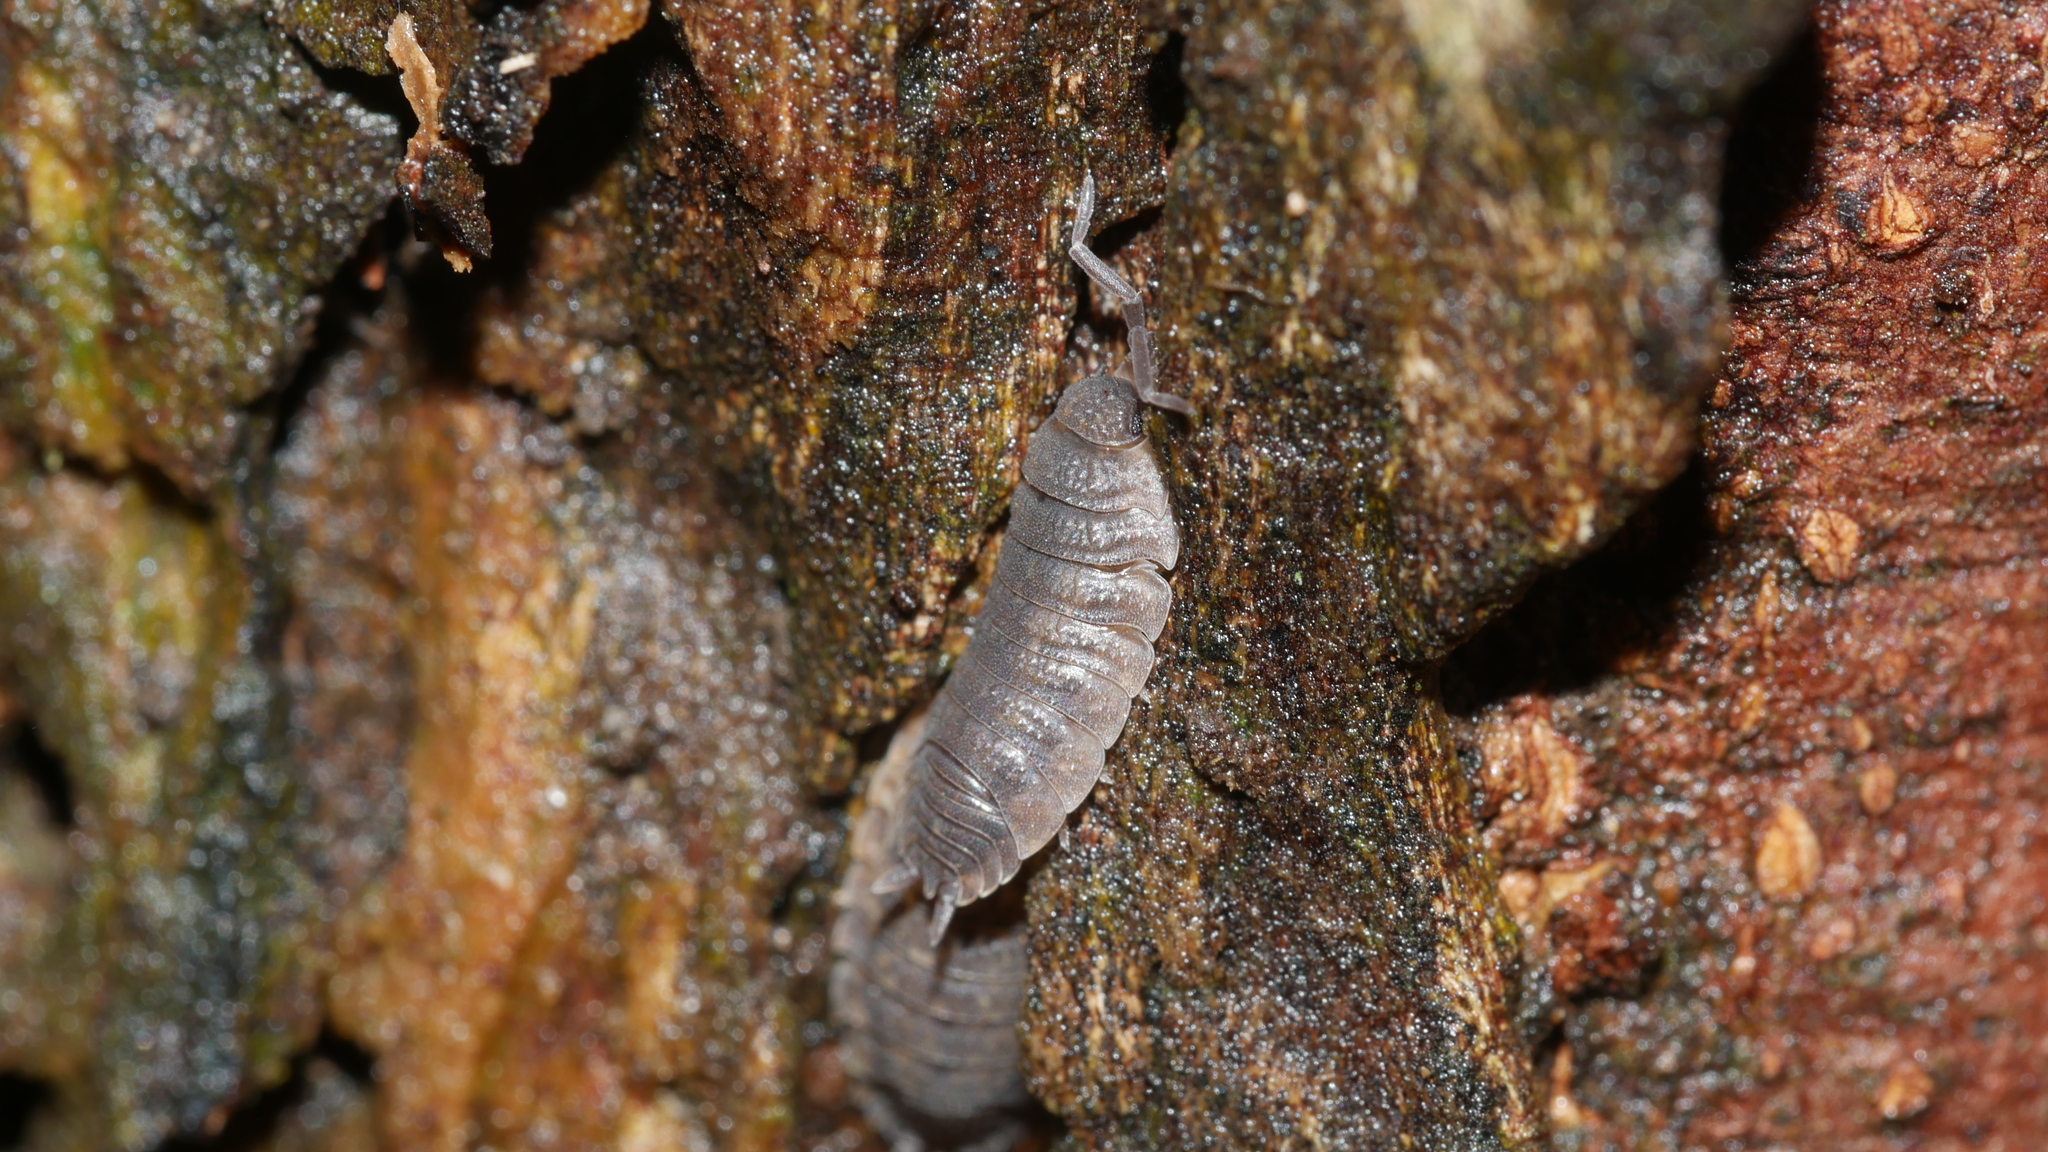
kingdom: Animalia
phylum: Arthropoda
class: Malacostraca
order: Isopoda
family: Porcellionidae
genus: Porcellio
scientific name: Porcellio scaber
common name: Common rough woodlouse
